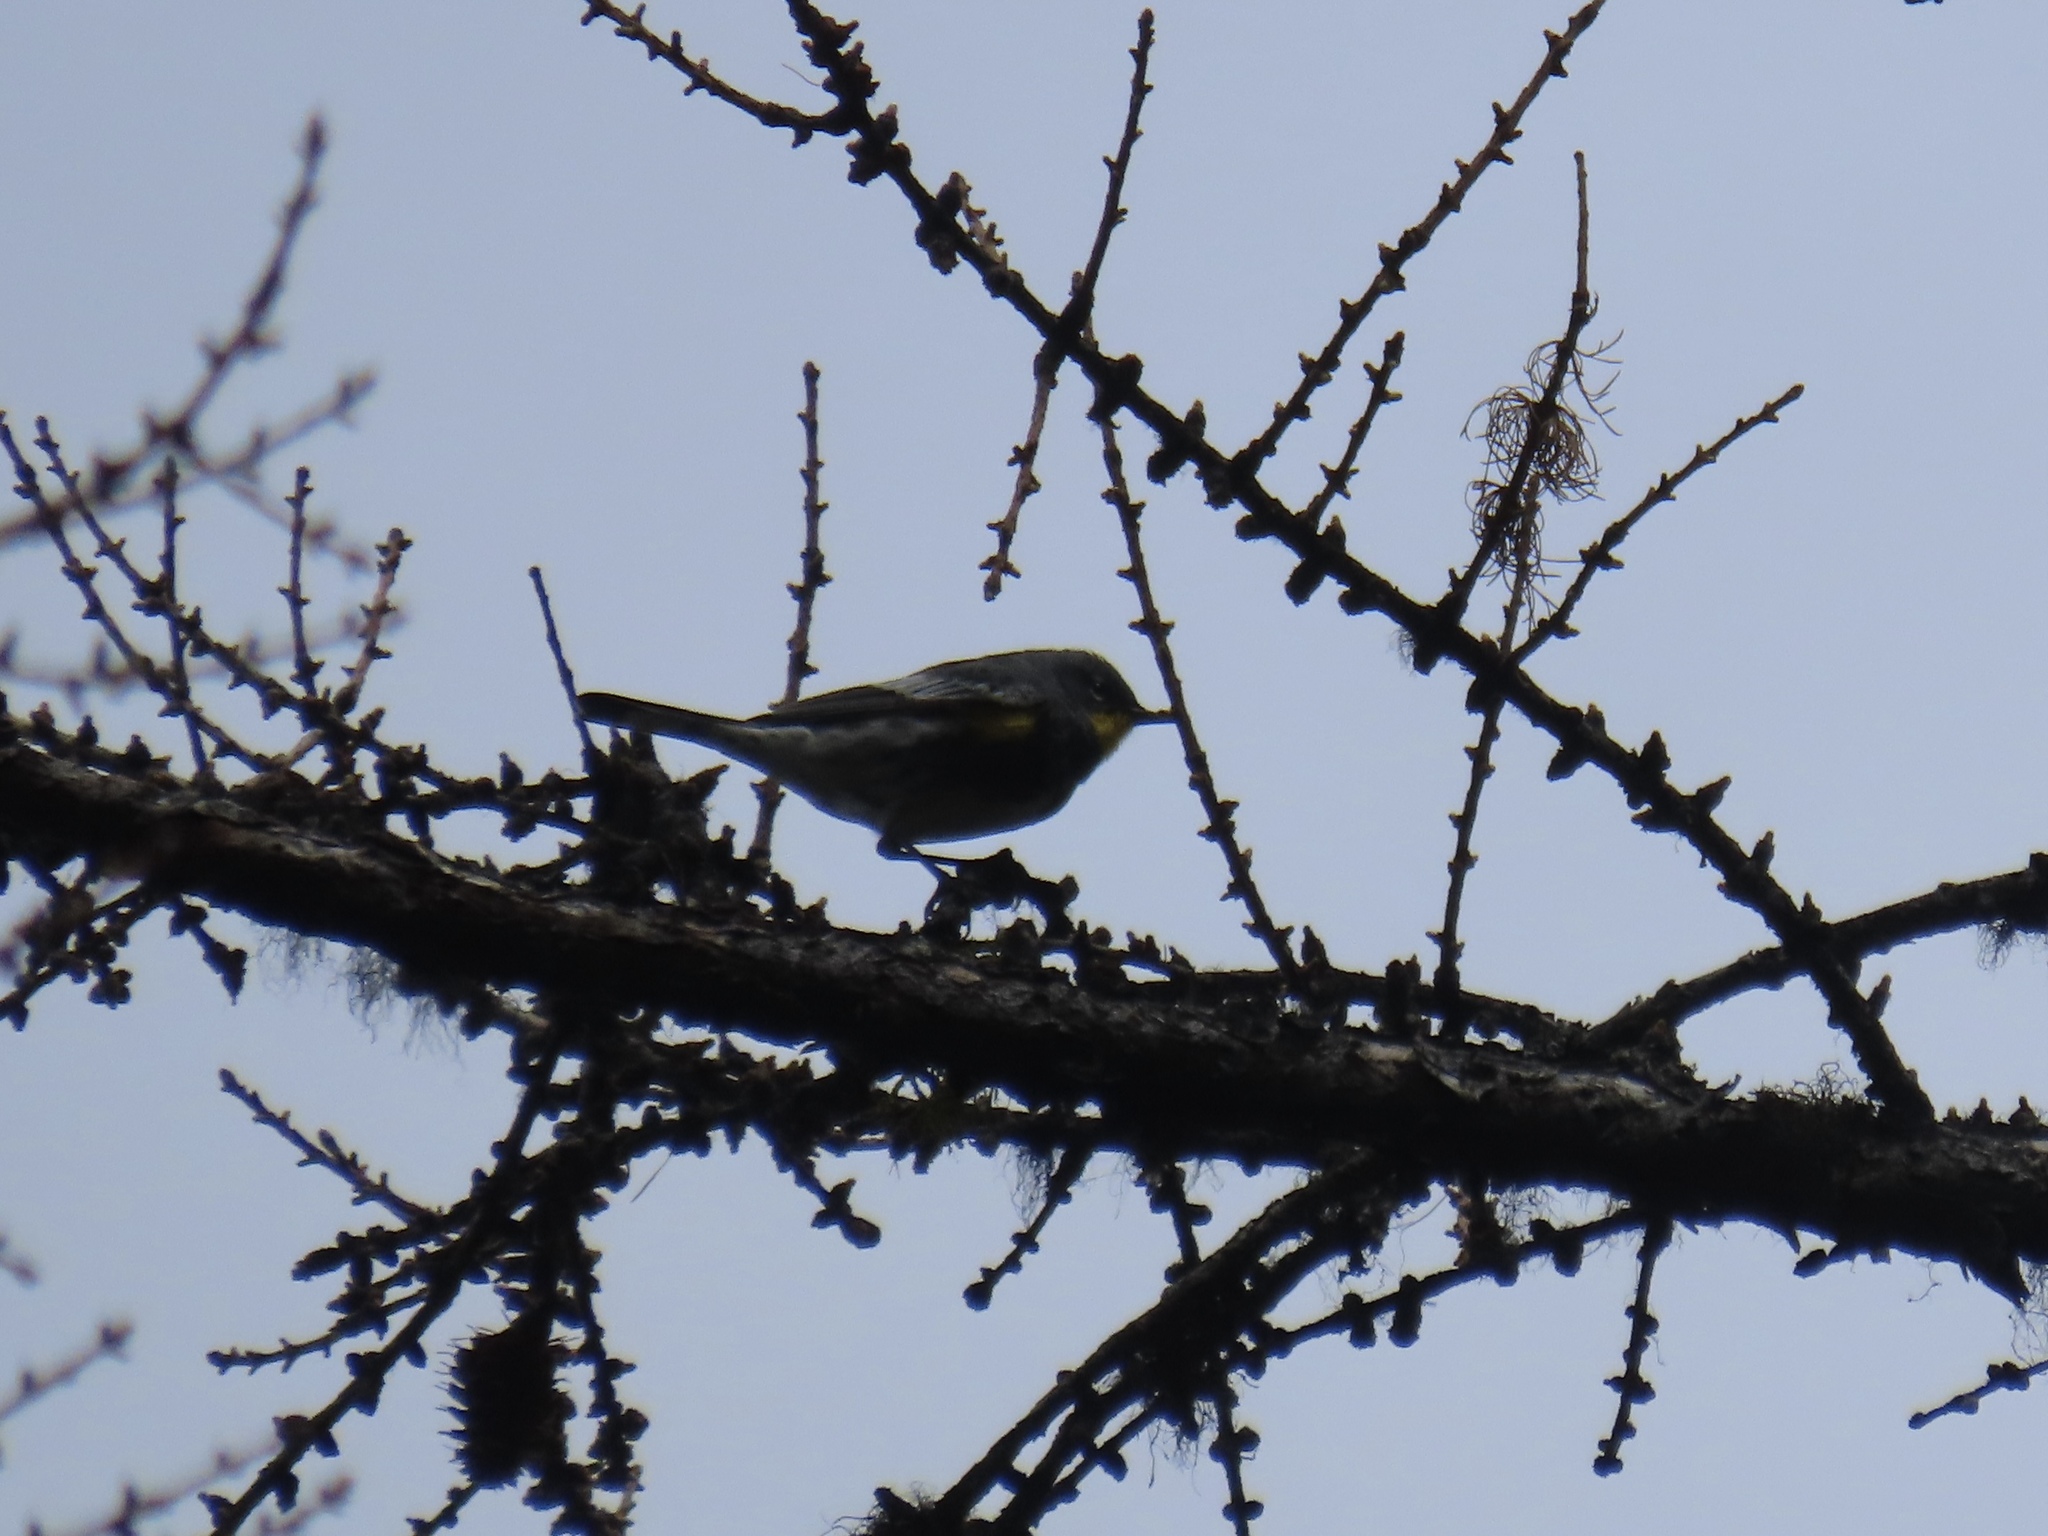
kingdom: Animalia
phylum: Chordata
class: Aves
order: Passeriformes
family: Parulidae
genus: Setophaga
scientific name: Setophaga coronata
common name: Myrtle warbler
